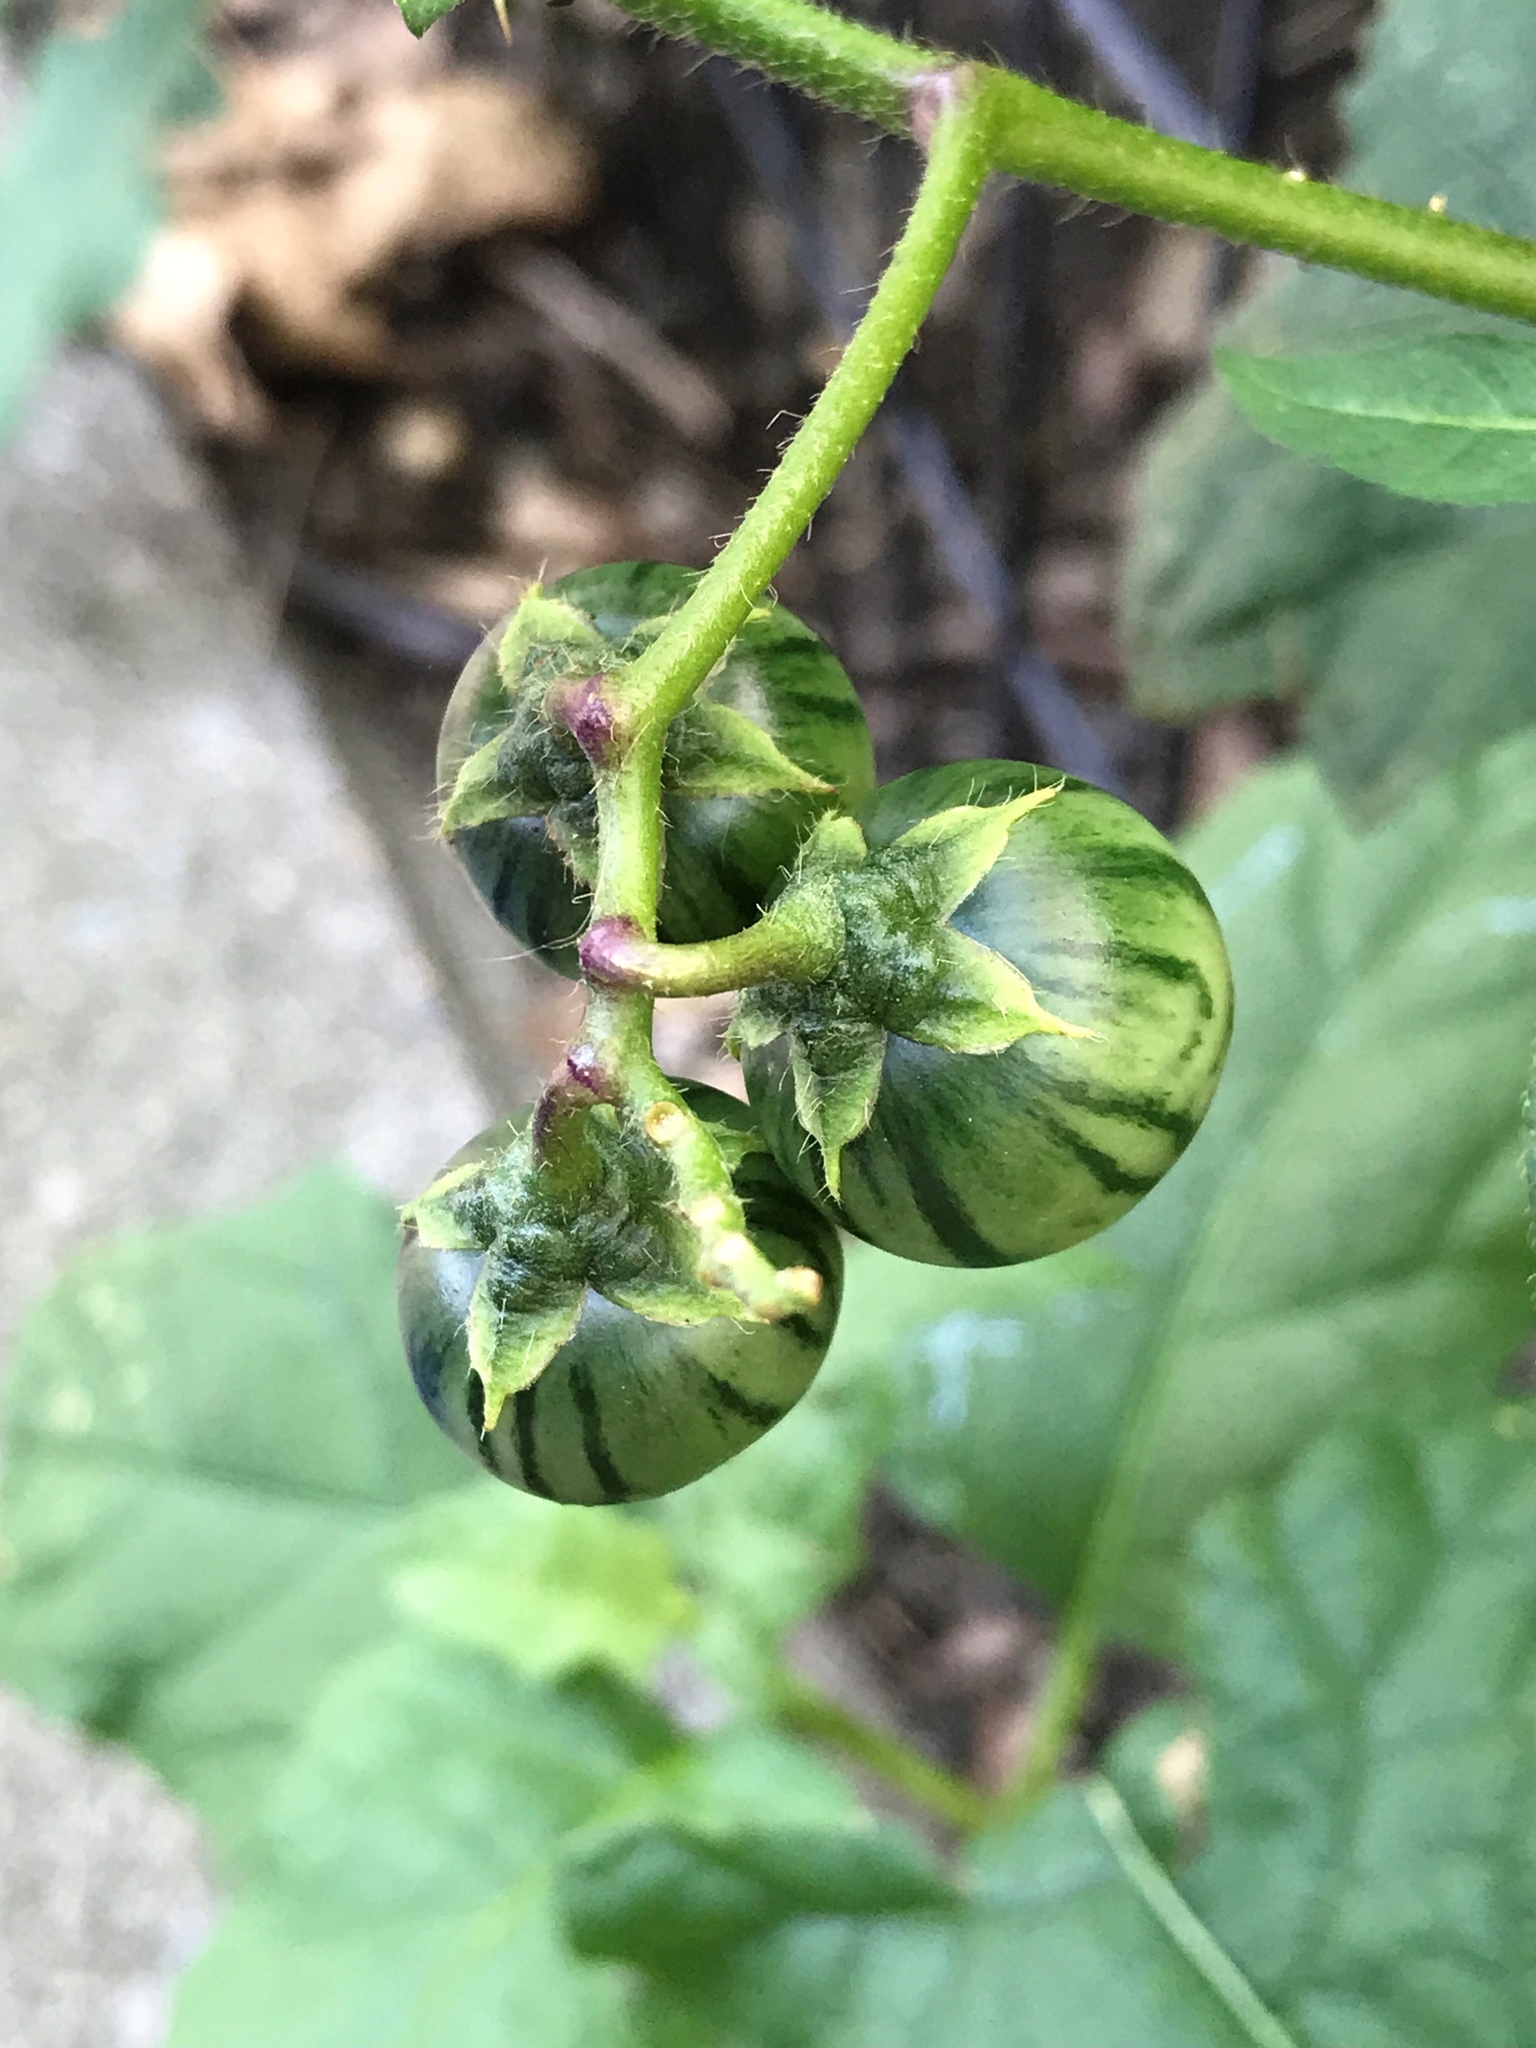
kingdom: Plantae
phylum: Tracheophyta
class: Magnoliopsida
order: Solanales
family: Solanaceae
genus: Solanum
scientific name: Solanum carolinense
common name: Horse-nettle
